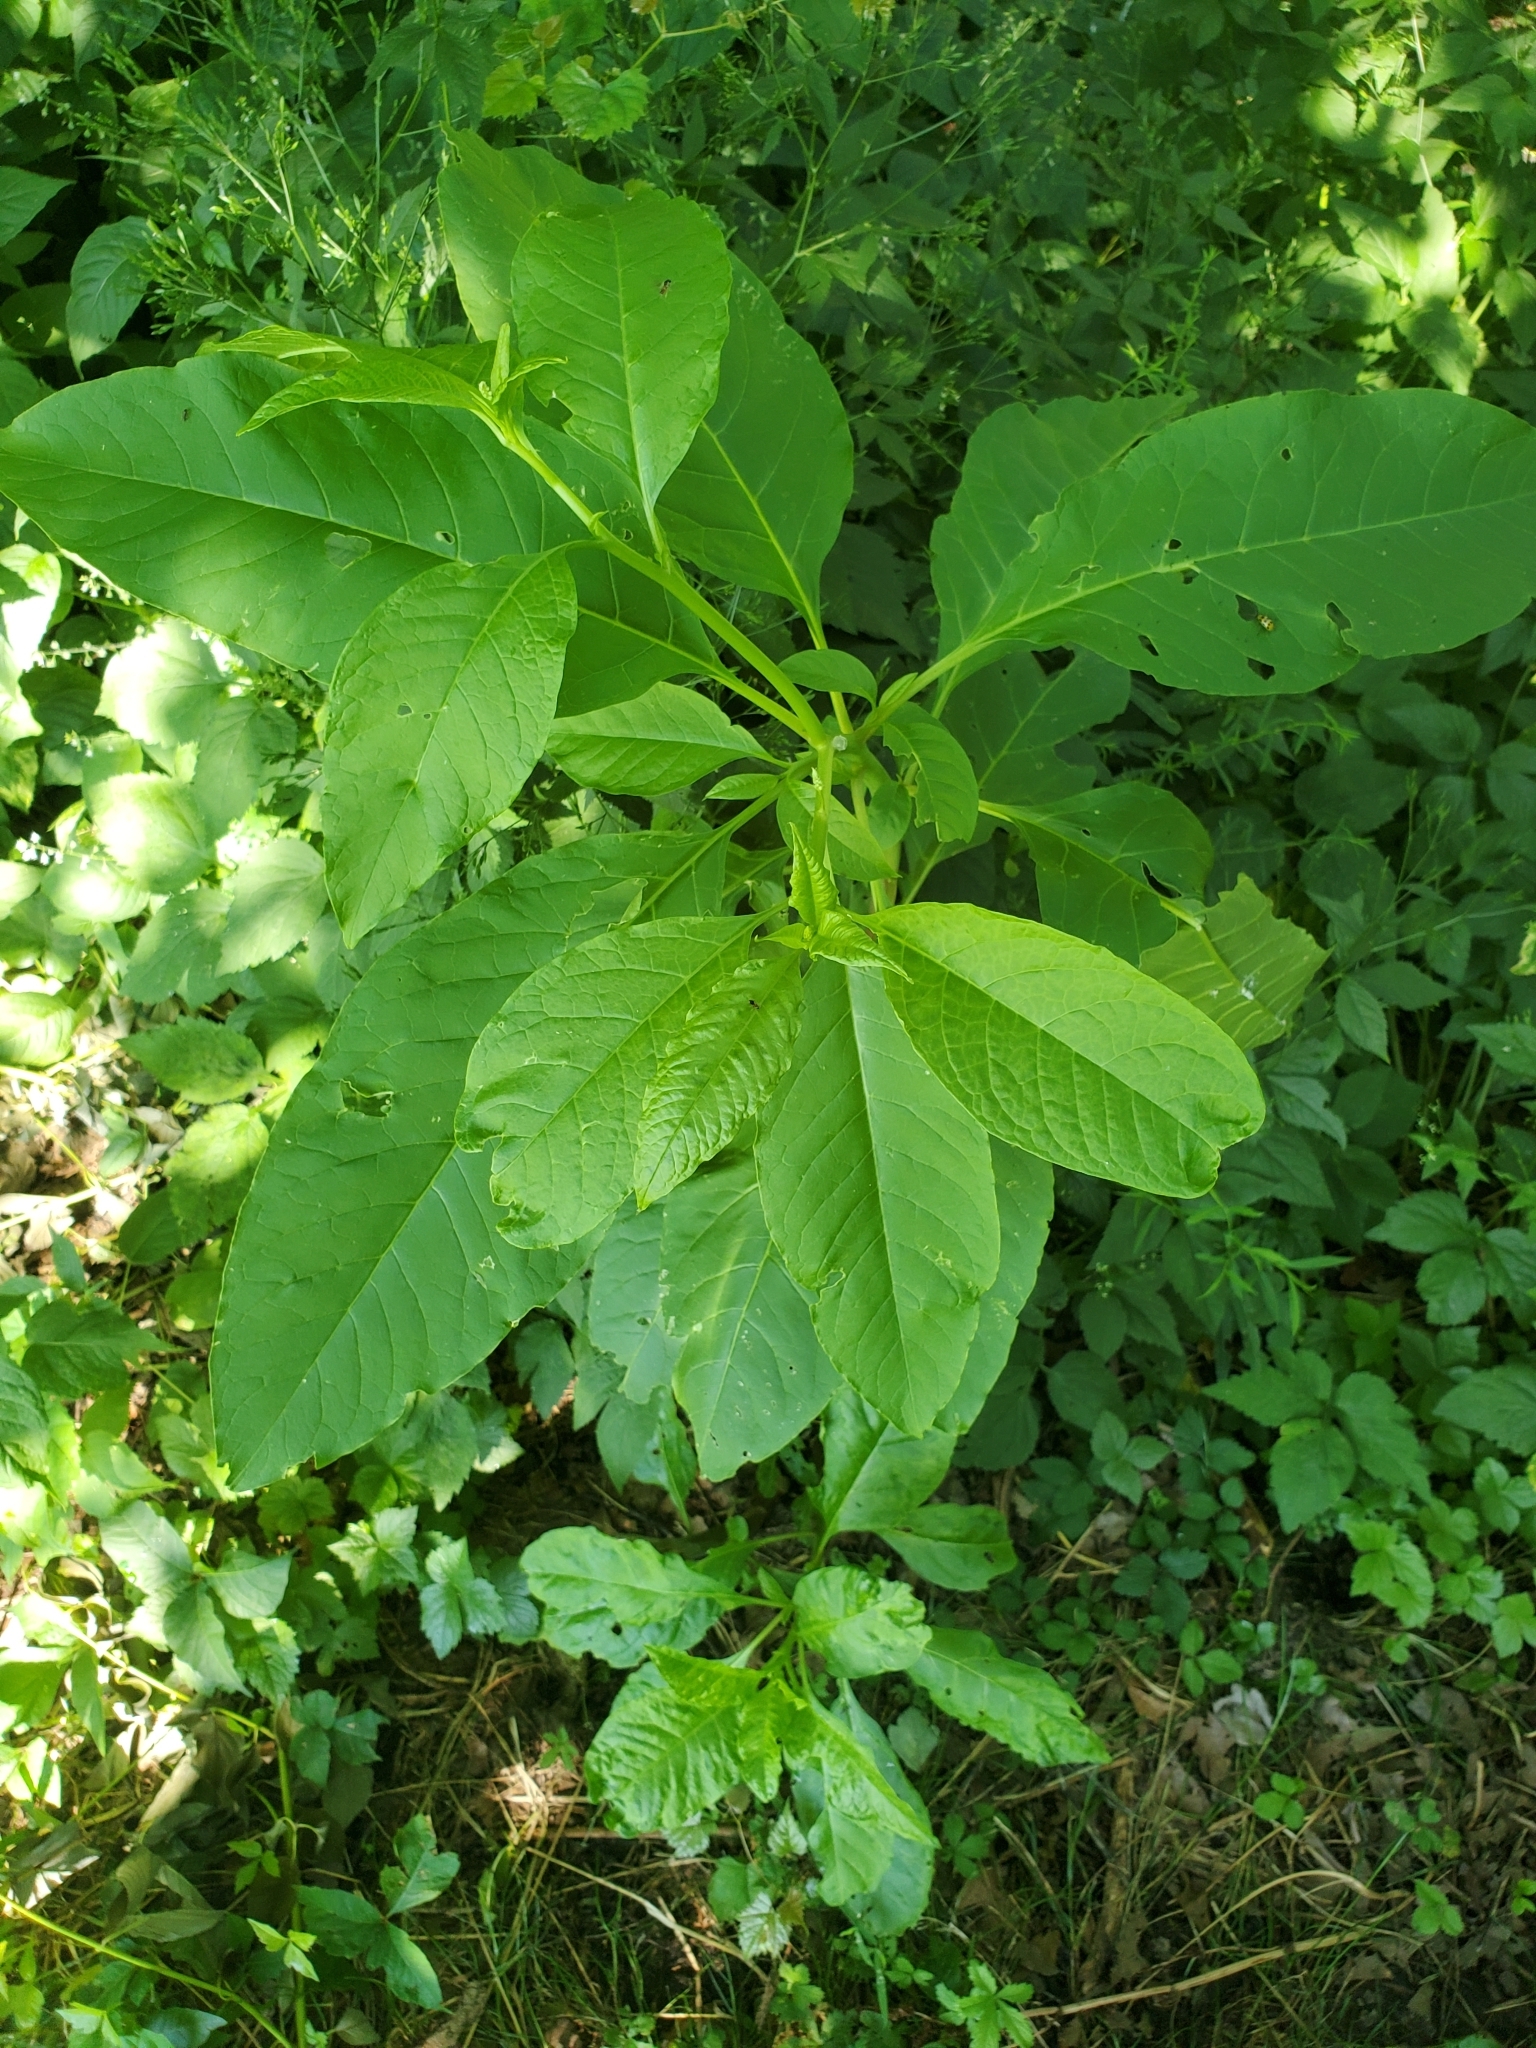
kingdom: Plantae
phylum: Tracheophyta
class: Magnoliopsida
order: Caryophyllales
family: Phytolaccaceae
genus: Phytolacca
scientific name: Phytolacca americana
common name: American pokeweed
